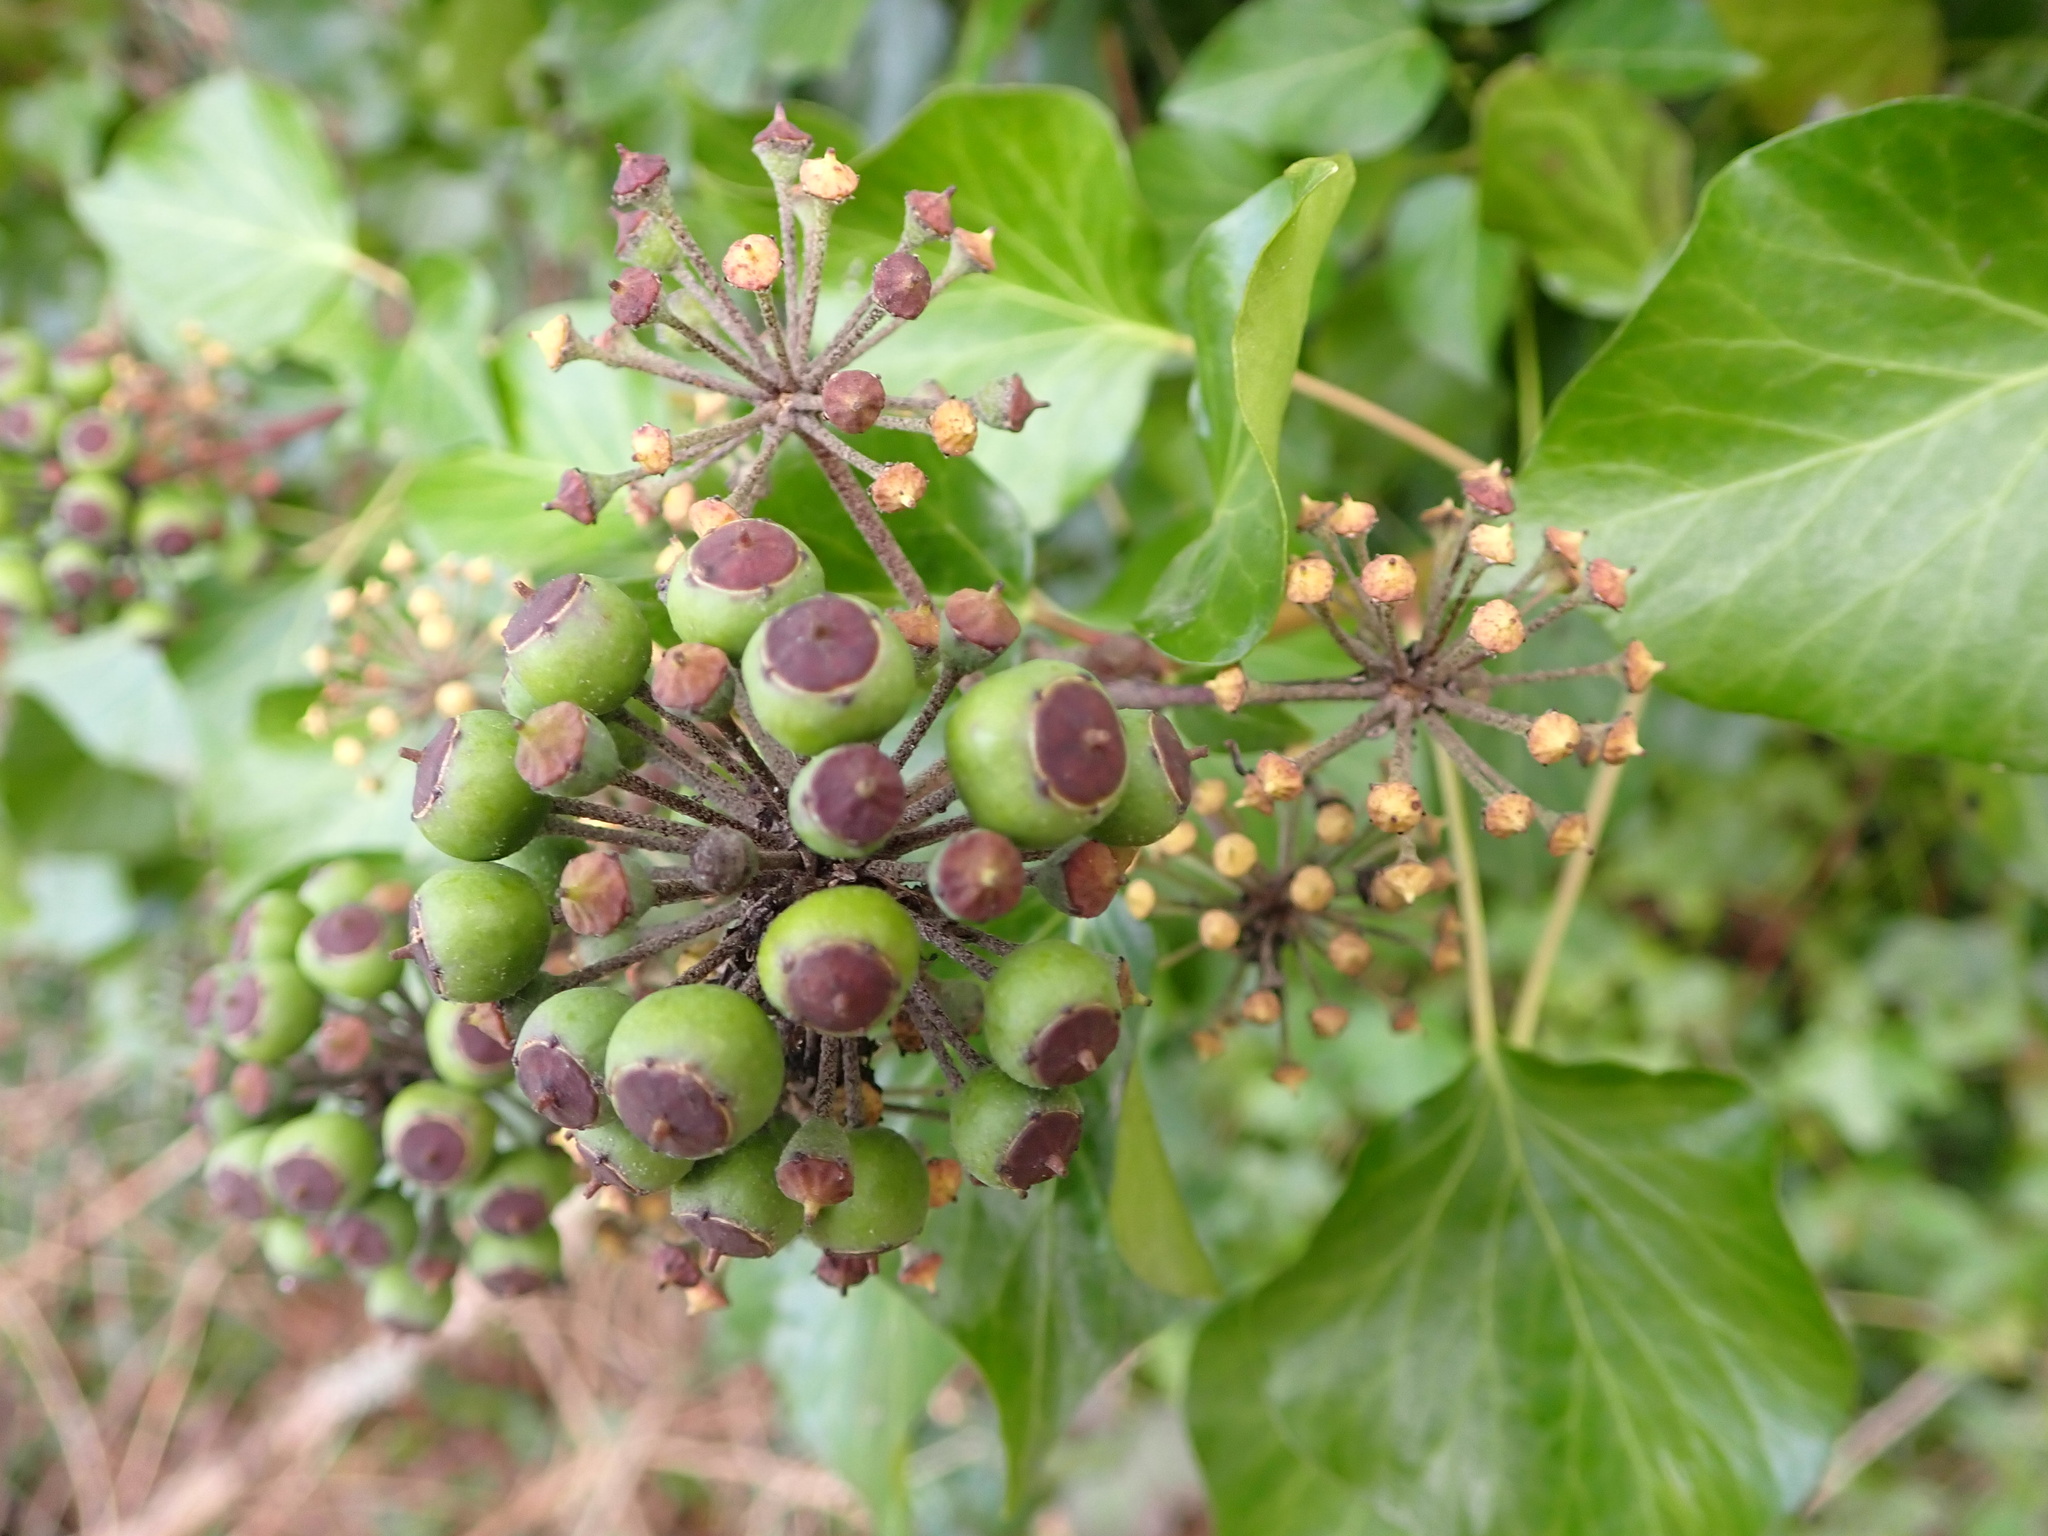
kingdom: Plantae
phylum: Tracheophyta
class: Magnoliopsida
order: Apiales
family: Araliaceae
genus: Hedera
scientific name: Hedera helix
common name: Ivy
